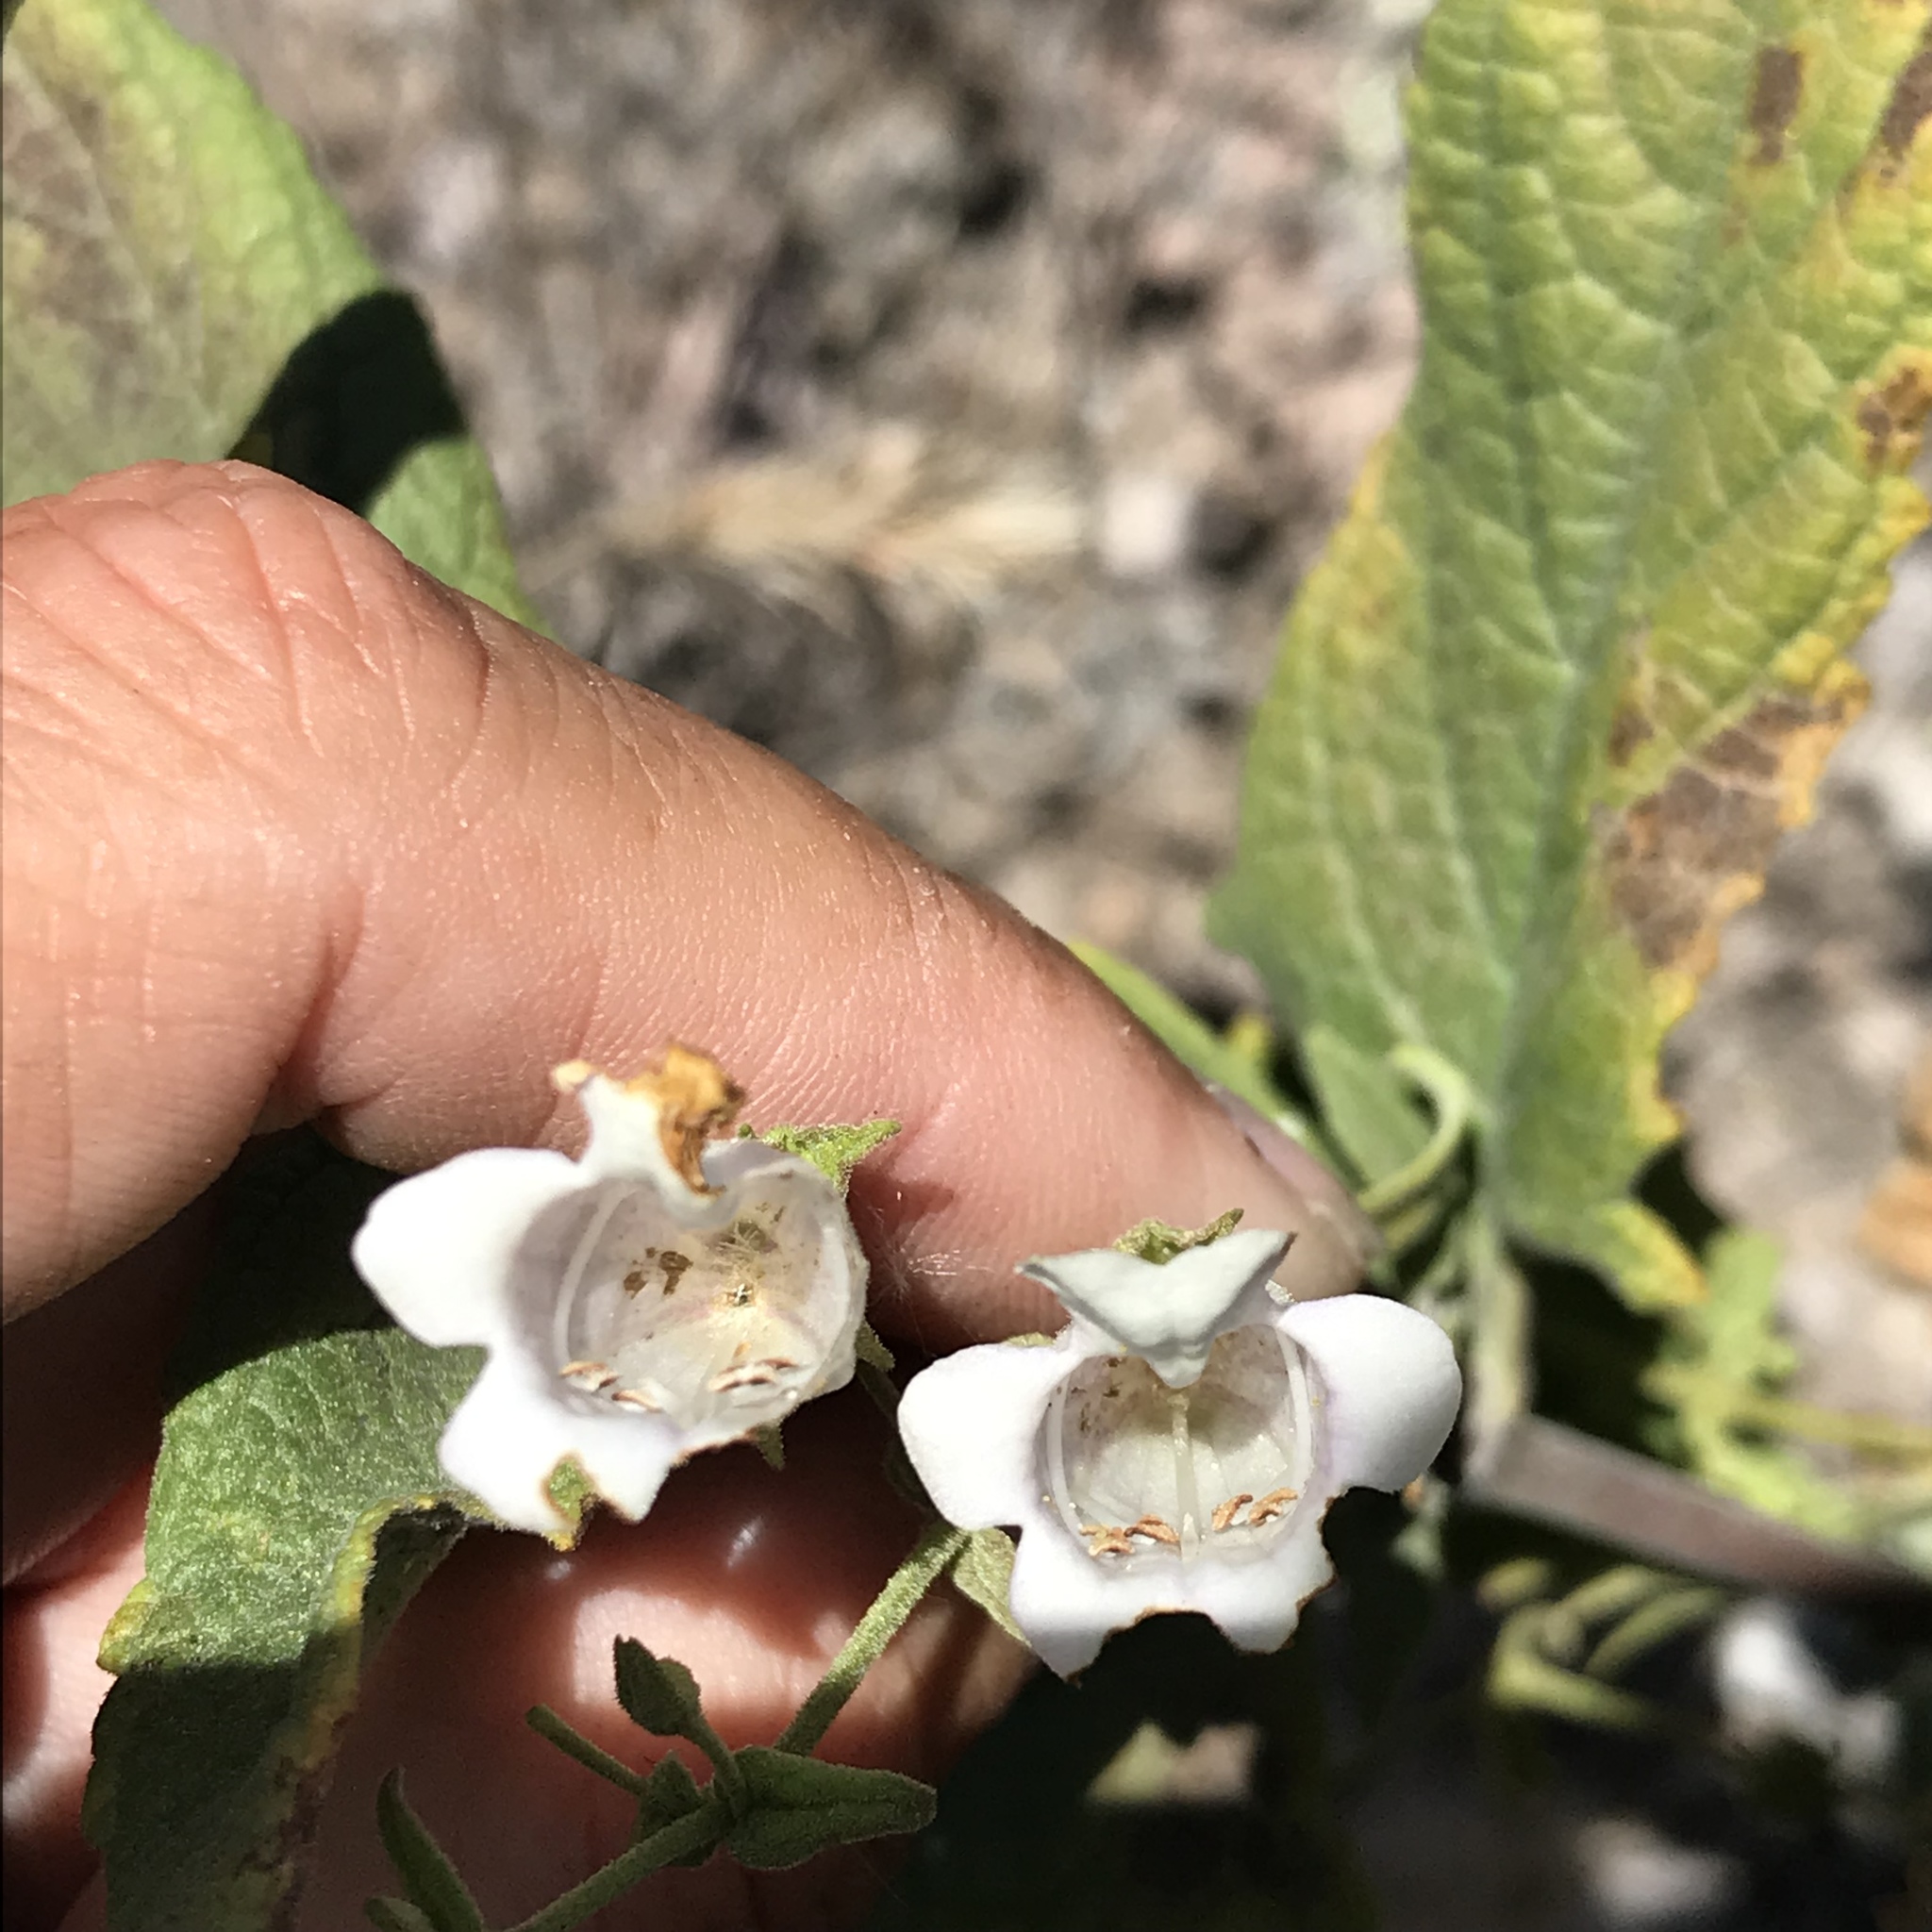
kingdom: Plantae
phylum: Tracheophyta
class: Magnoliopsida
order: Lamiales
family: Lamiaceae
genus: Lepechinia
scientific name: Lepechinia ganderi
